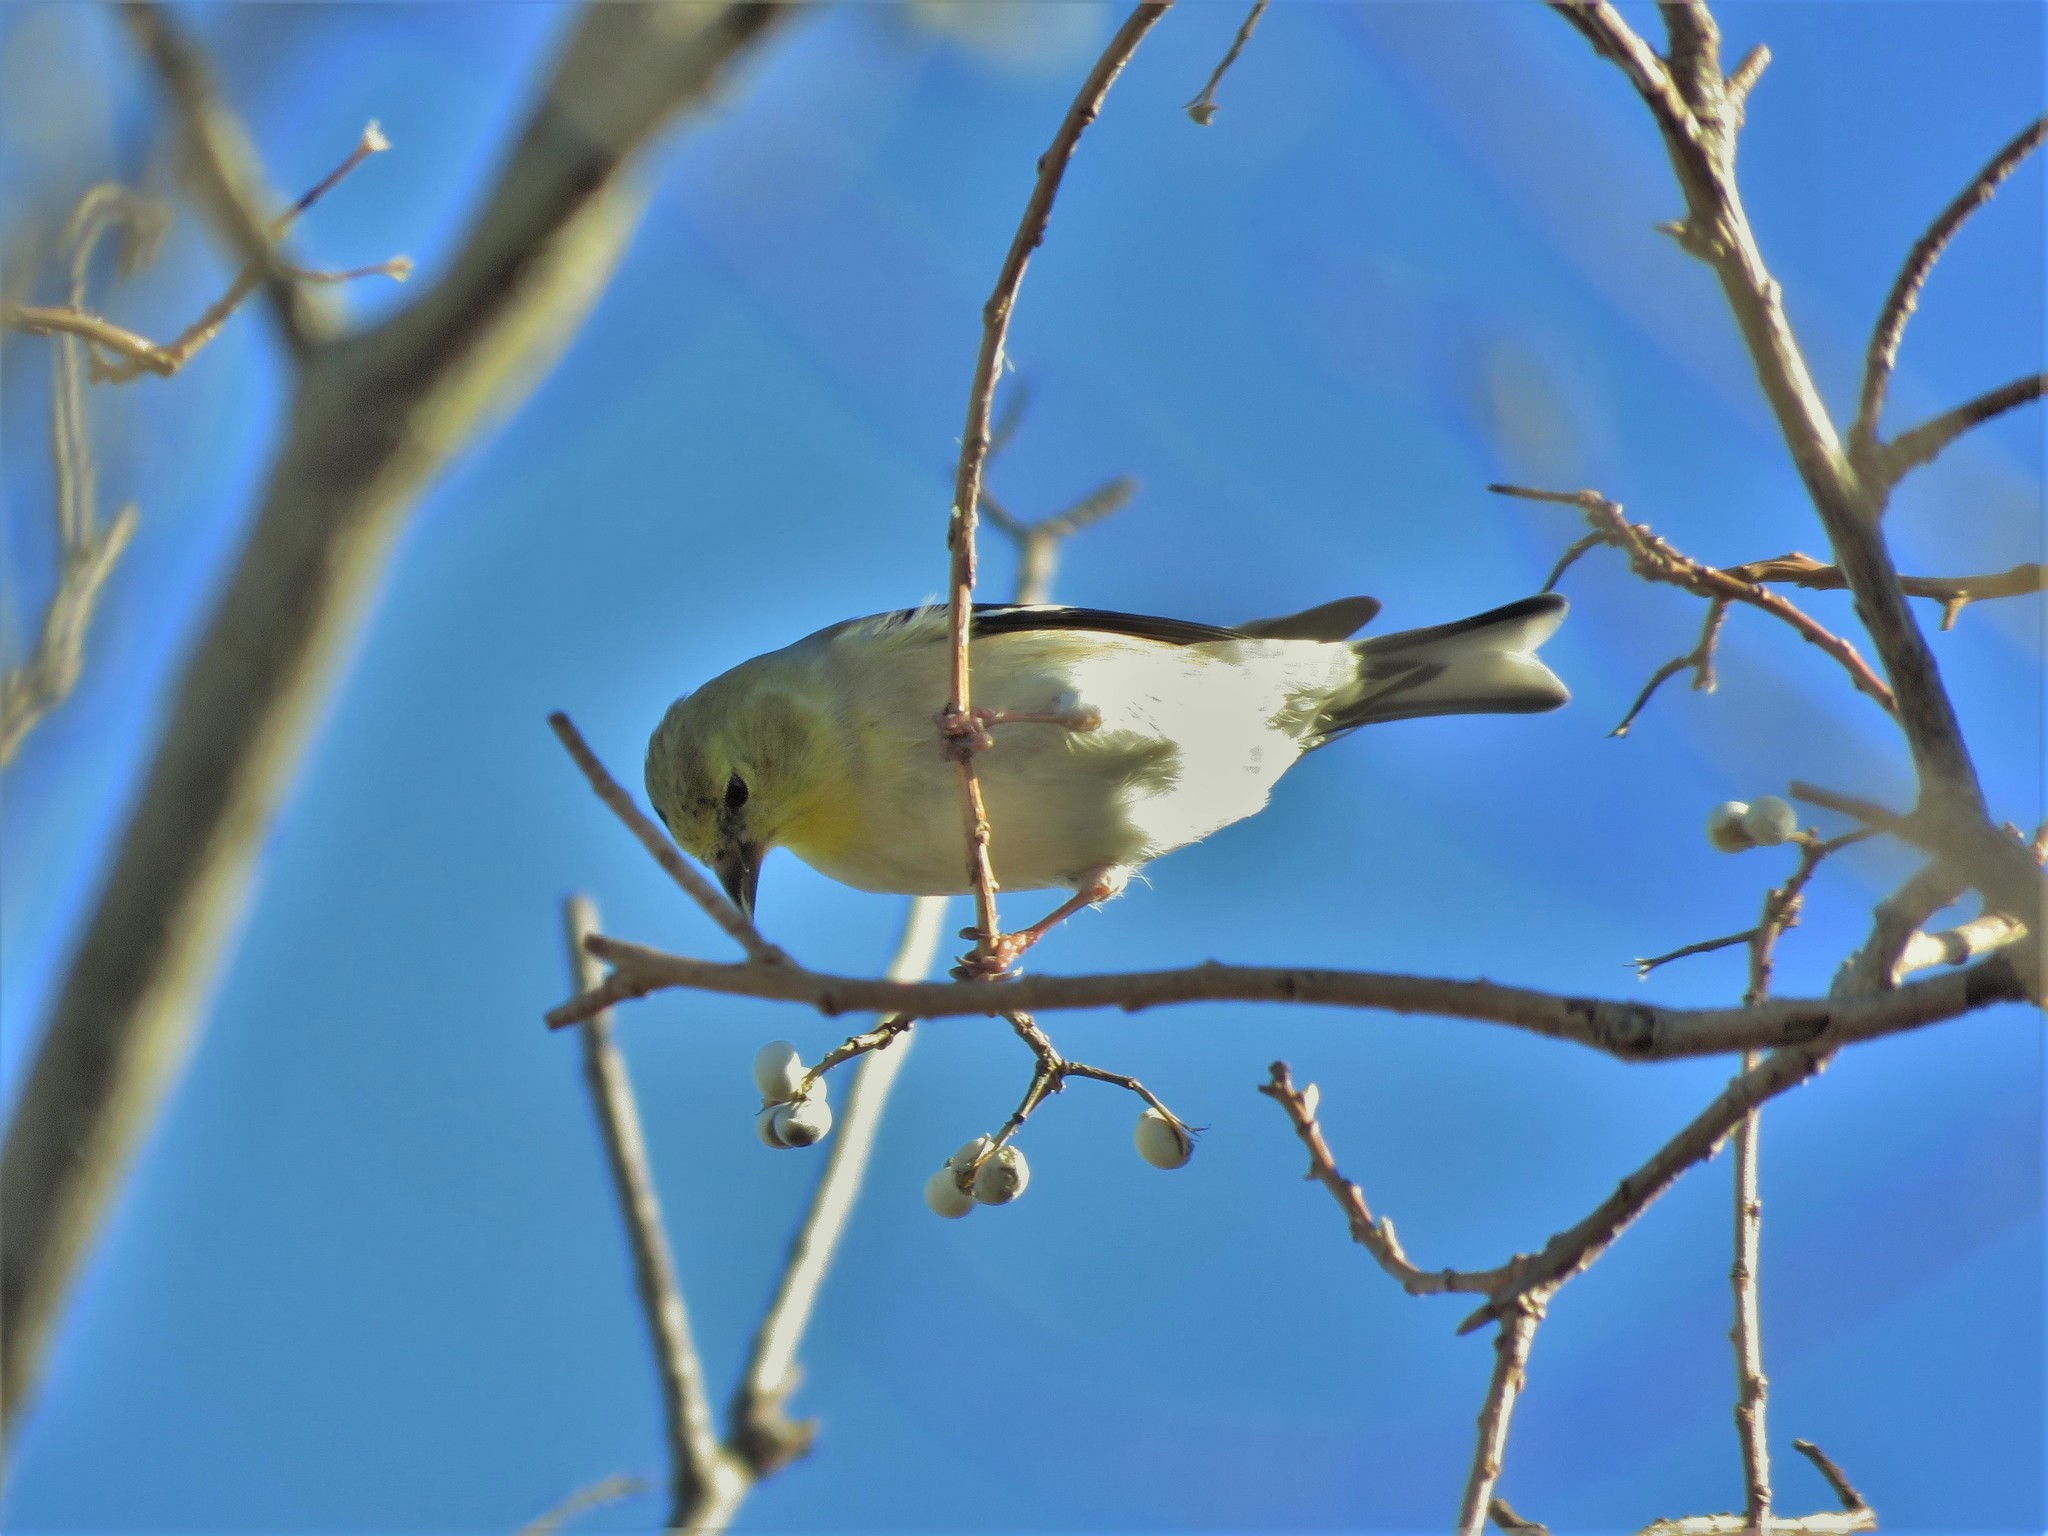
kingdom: Animalia
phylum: Chordata
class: Aves
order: Passeriformes
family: Fringillidae
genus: Spinus
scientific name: Spinus tristis
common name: American goldfinch
